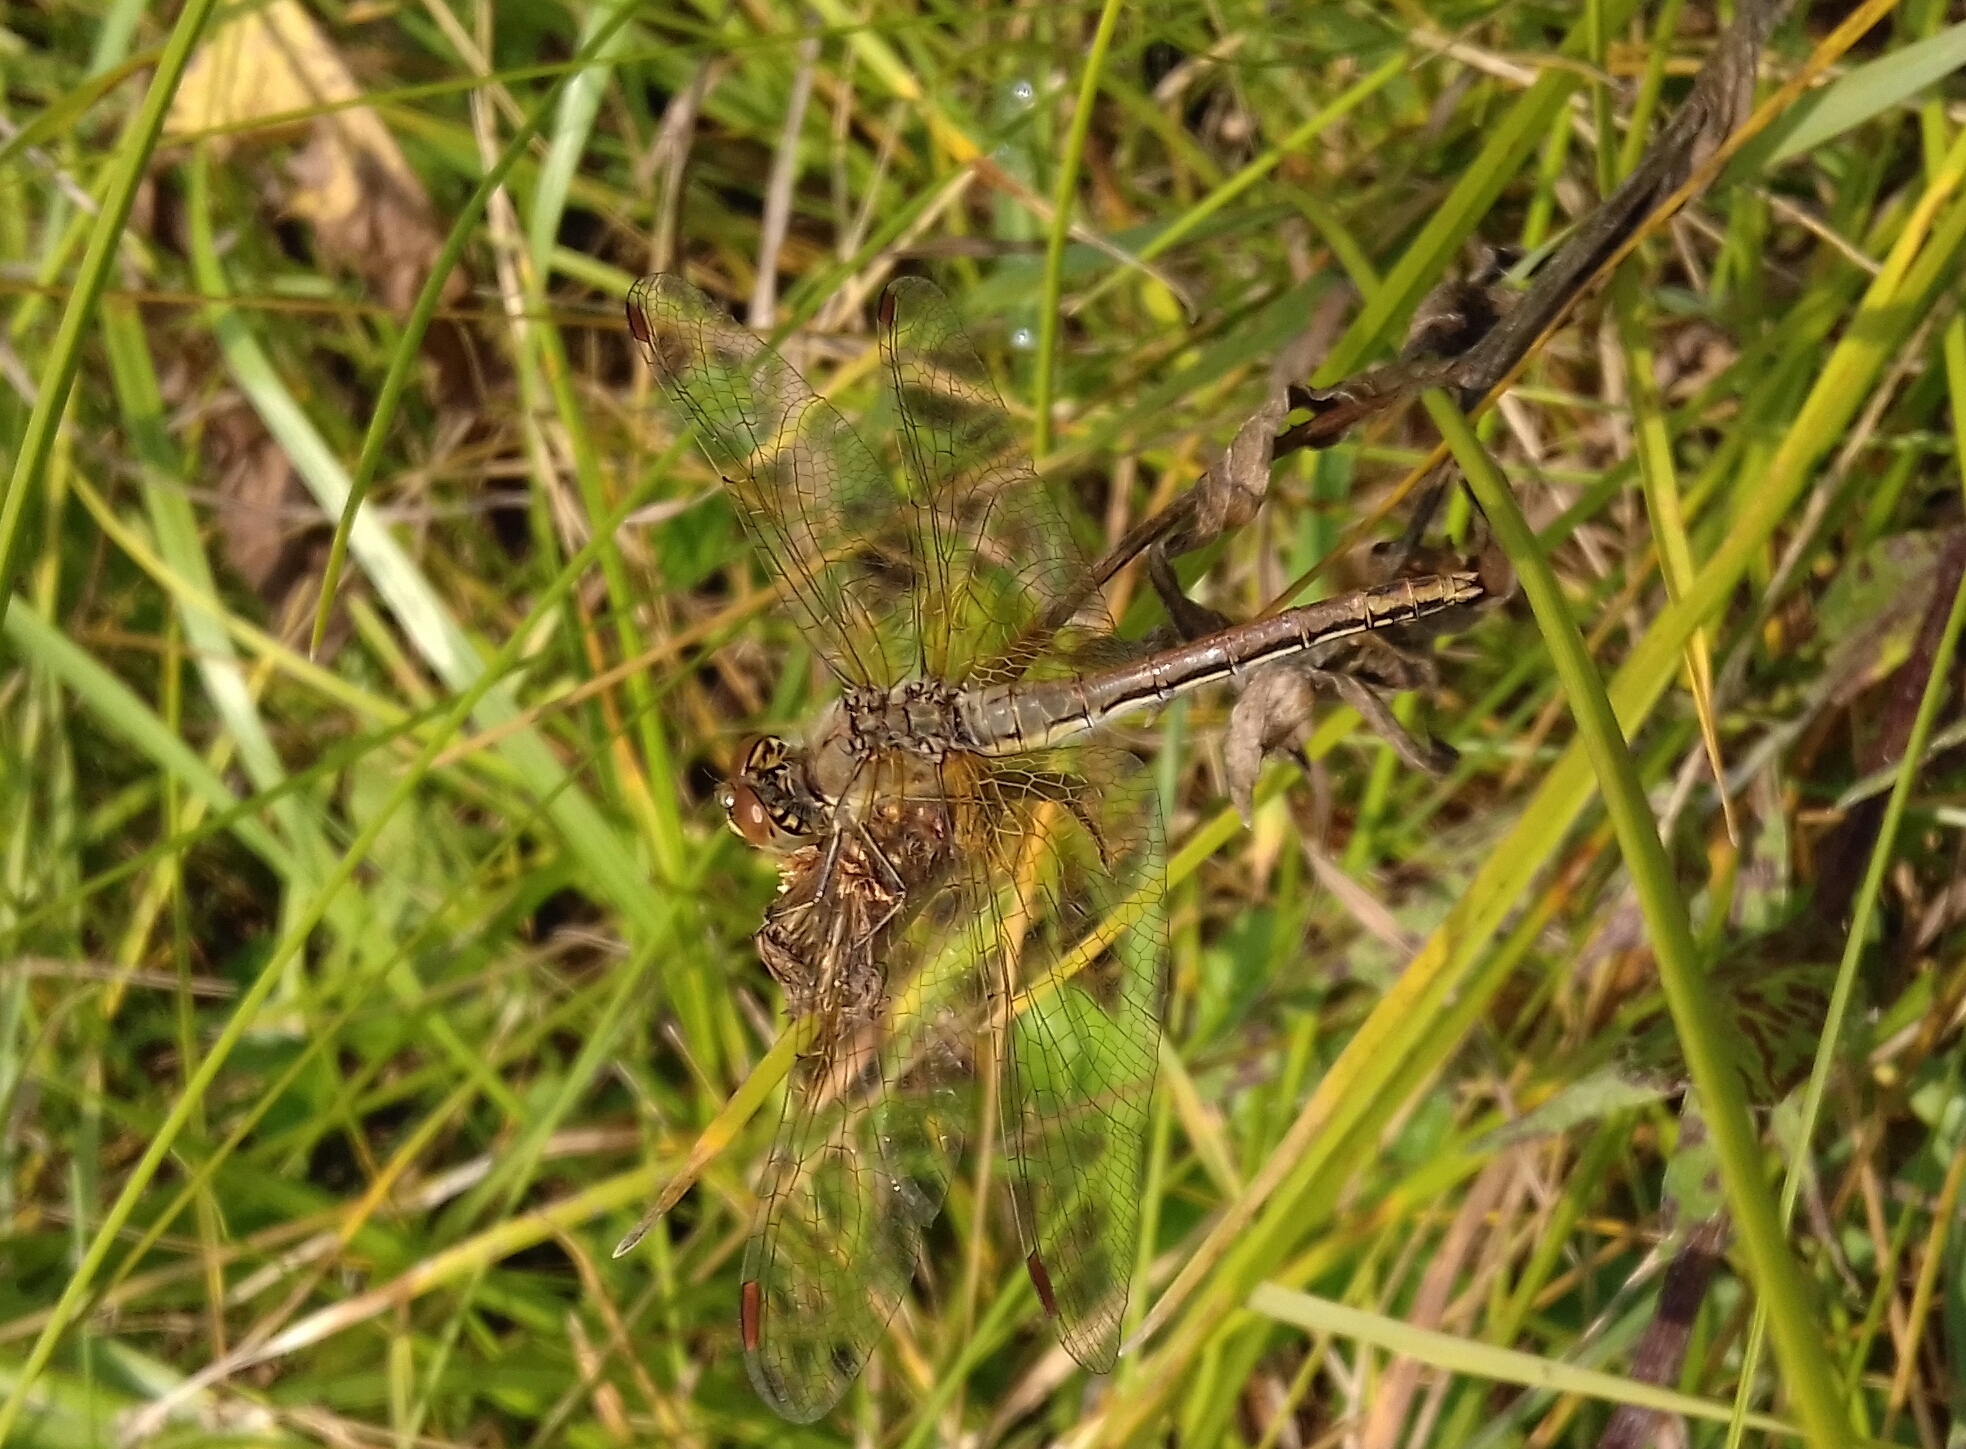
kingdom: Animalia
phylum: Arthropoda
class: Insecta
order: Odonata
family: Libellulidae
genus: Sympetrum
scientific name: Sympetrum flaveolum
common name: Yellow-winged darter
